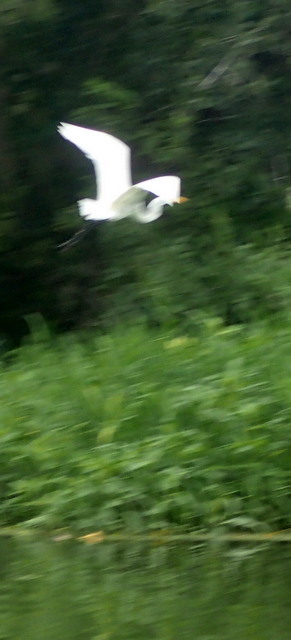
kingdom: Animalia
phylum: Chordata
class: Aves
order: Pelecaniformes
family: Ardeidae
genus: Ardea
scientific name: Ardea alba
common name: Great egret
